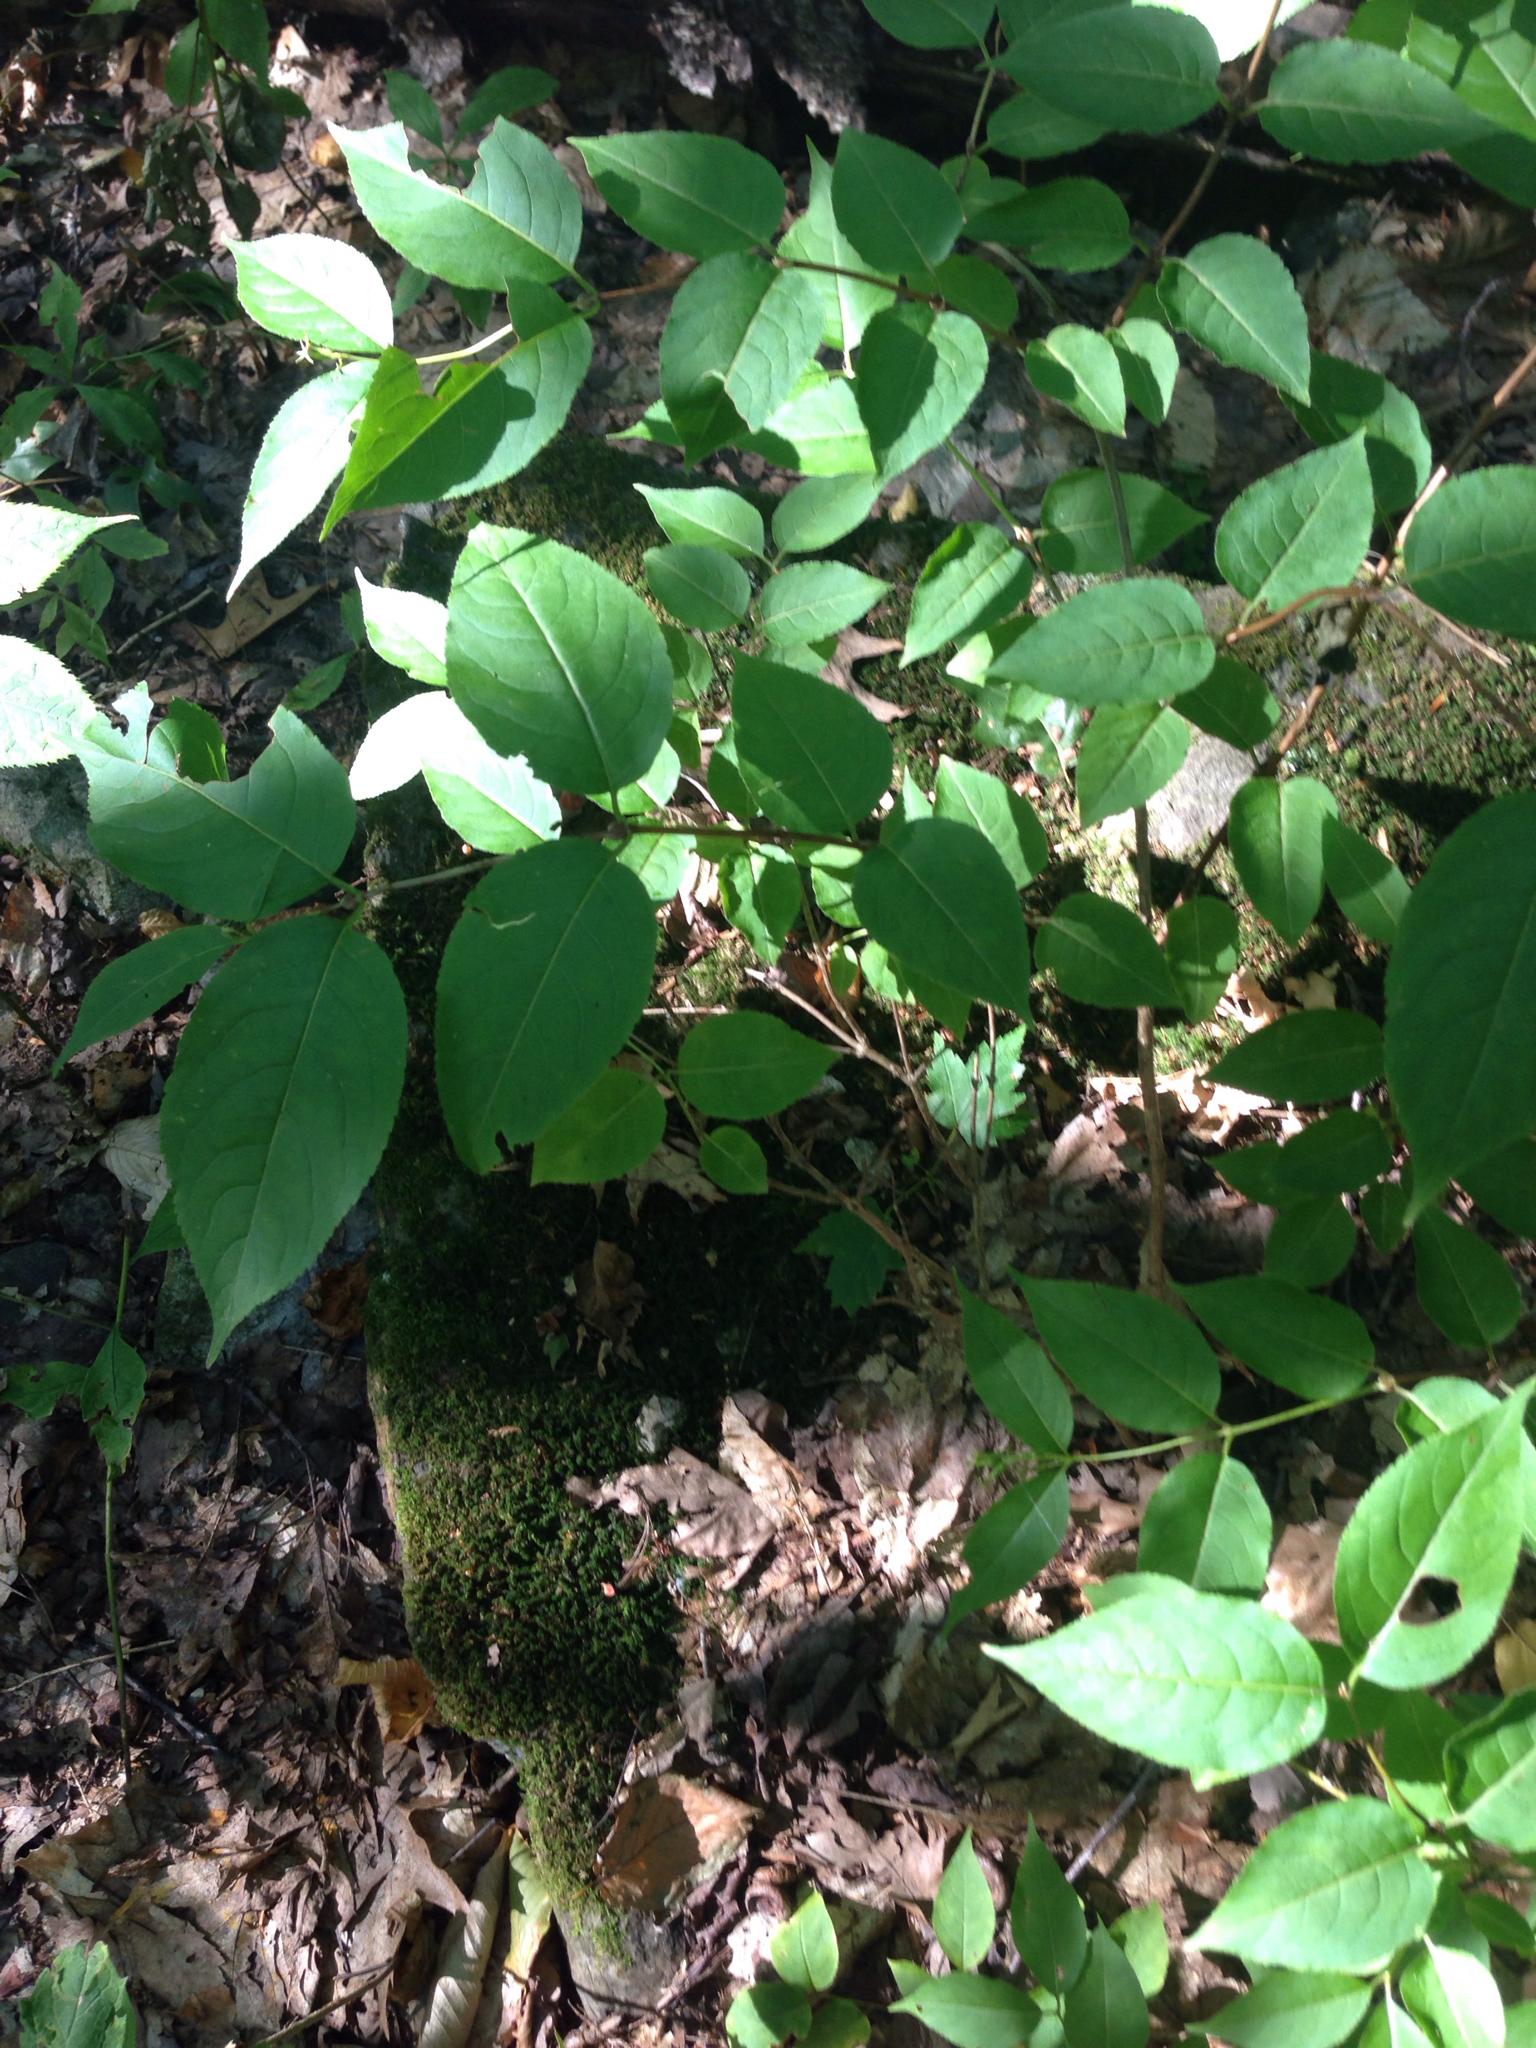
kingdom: Plantae
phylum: Tracheophyta
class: Magnoliopsida
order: Dipsacales
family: Caprifoliaceae
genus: Diervilla
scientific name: Diervilla lonicera
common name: Bush-honeysuckle
